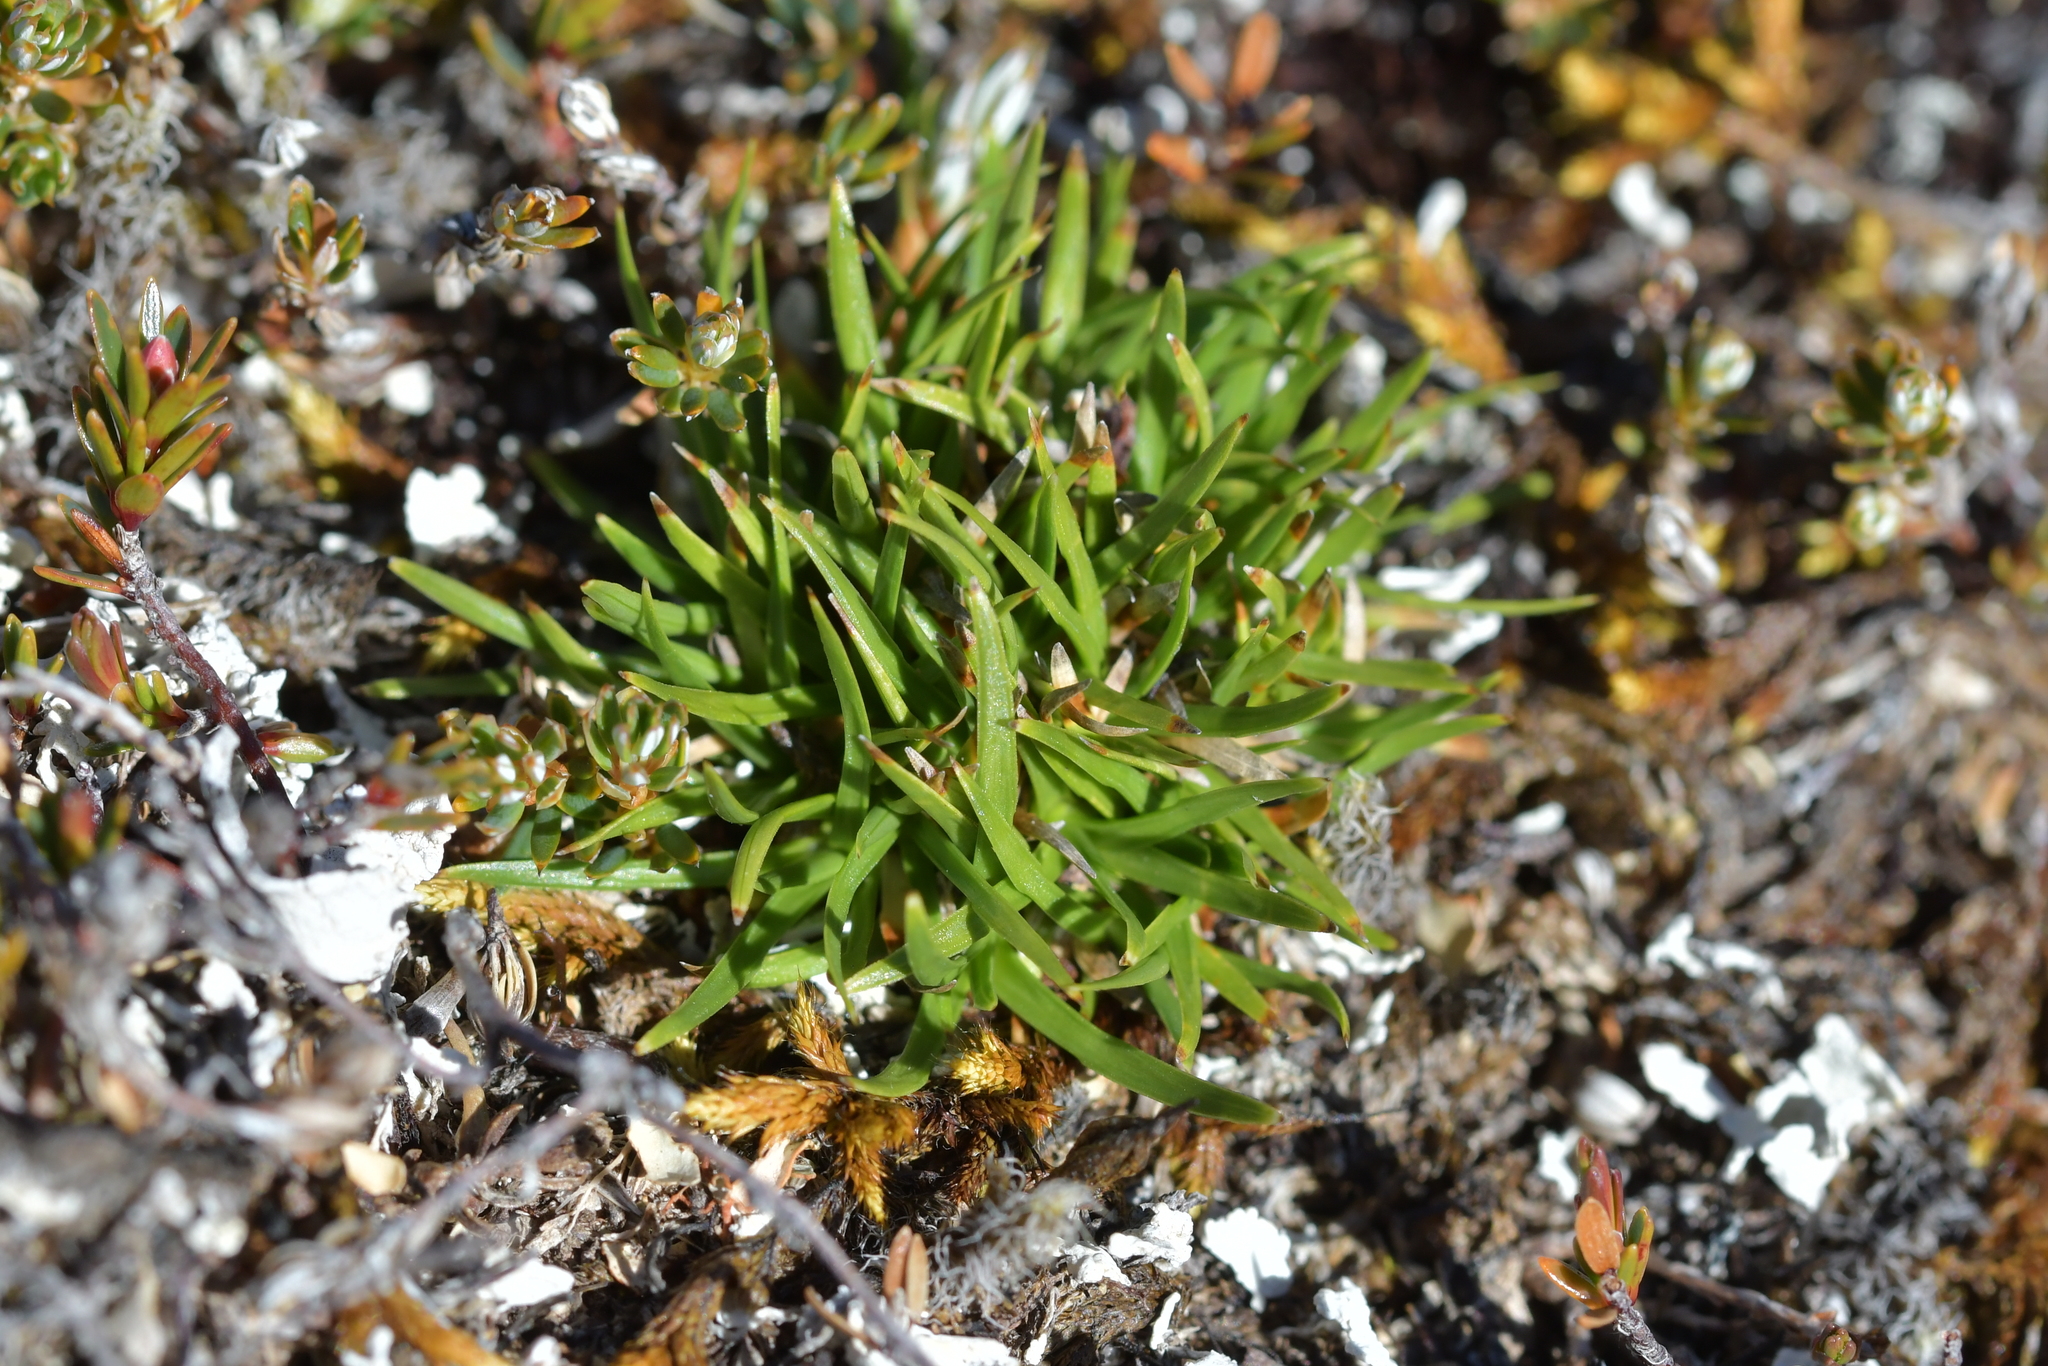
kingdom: Plantae
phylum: Tracheophyta
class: Liliopsida
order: Poales
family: Cyperaceae
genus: Oreobolus
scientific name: Oreobolus impar
